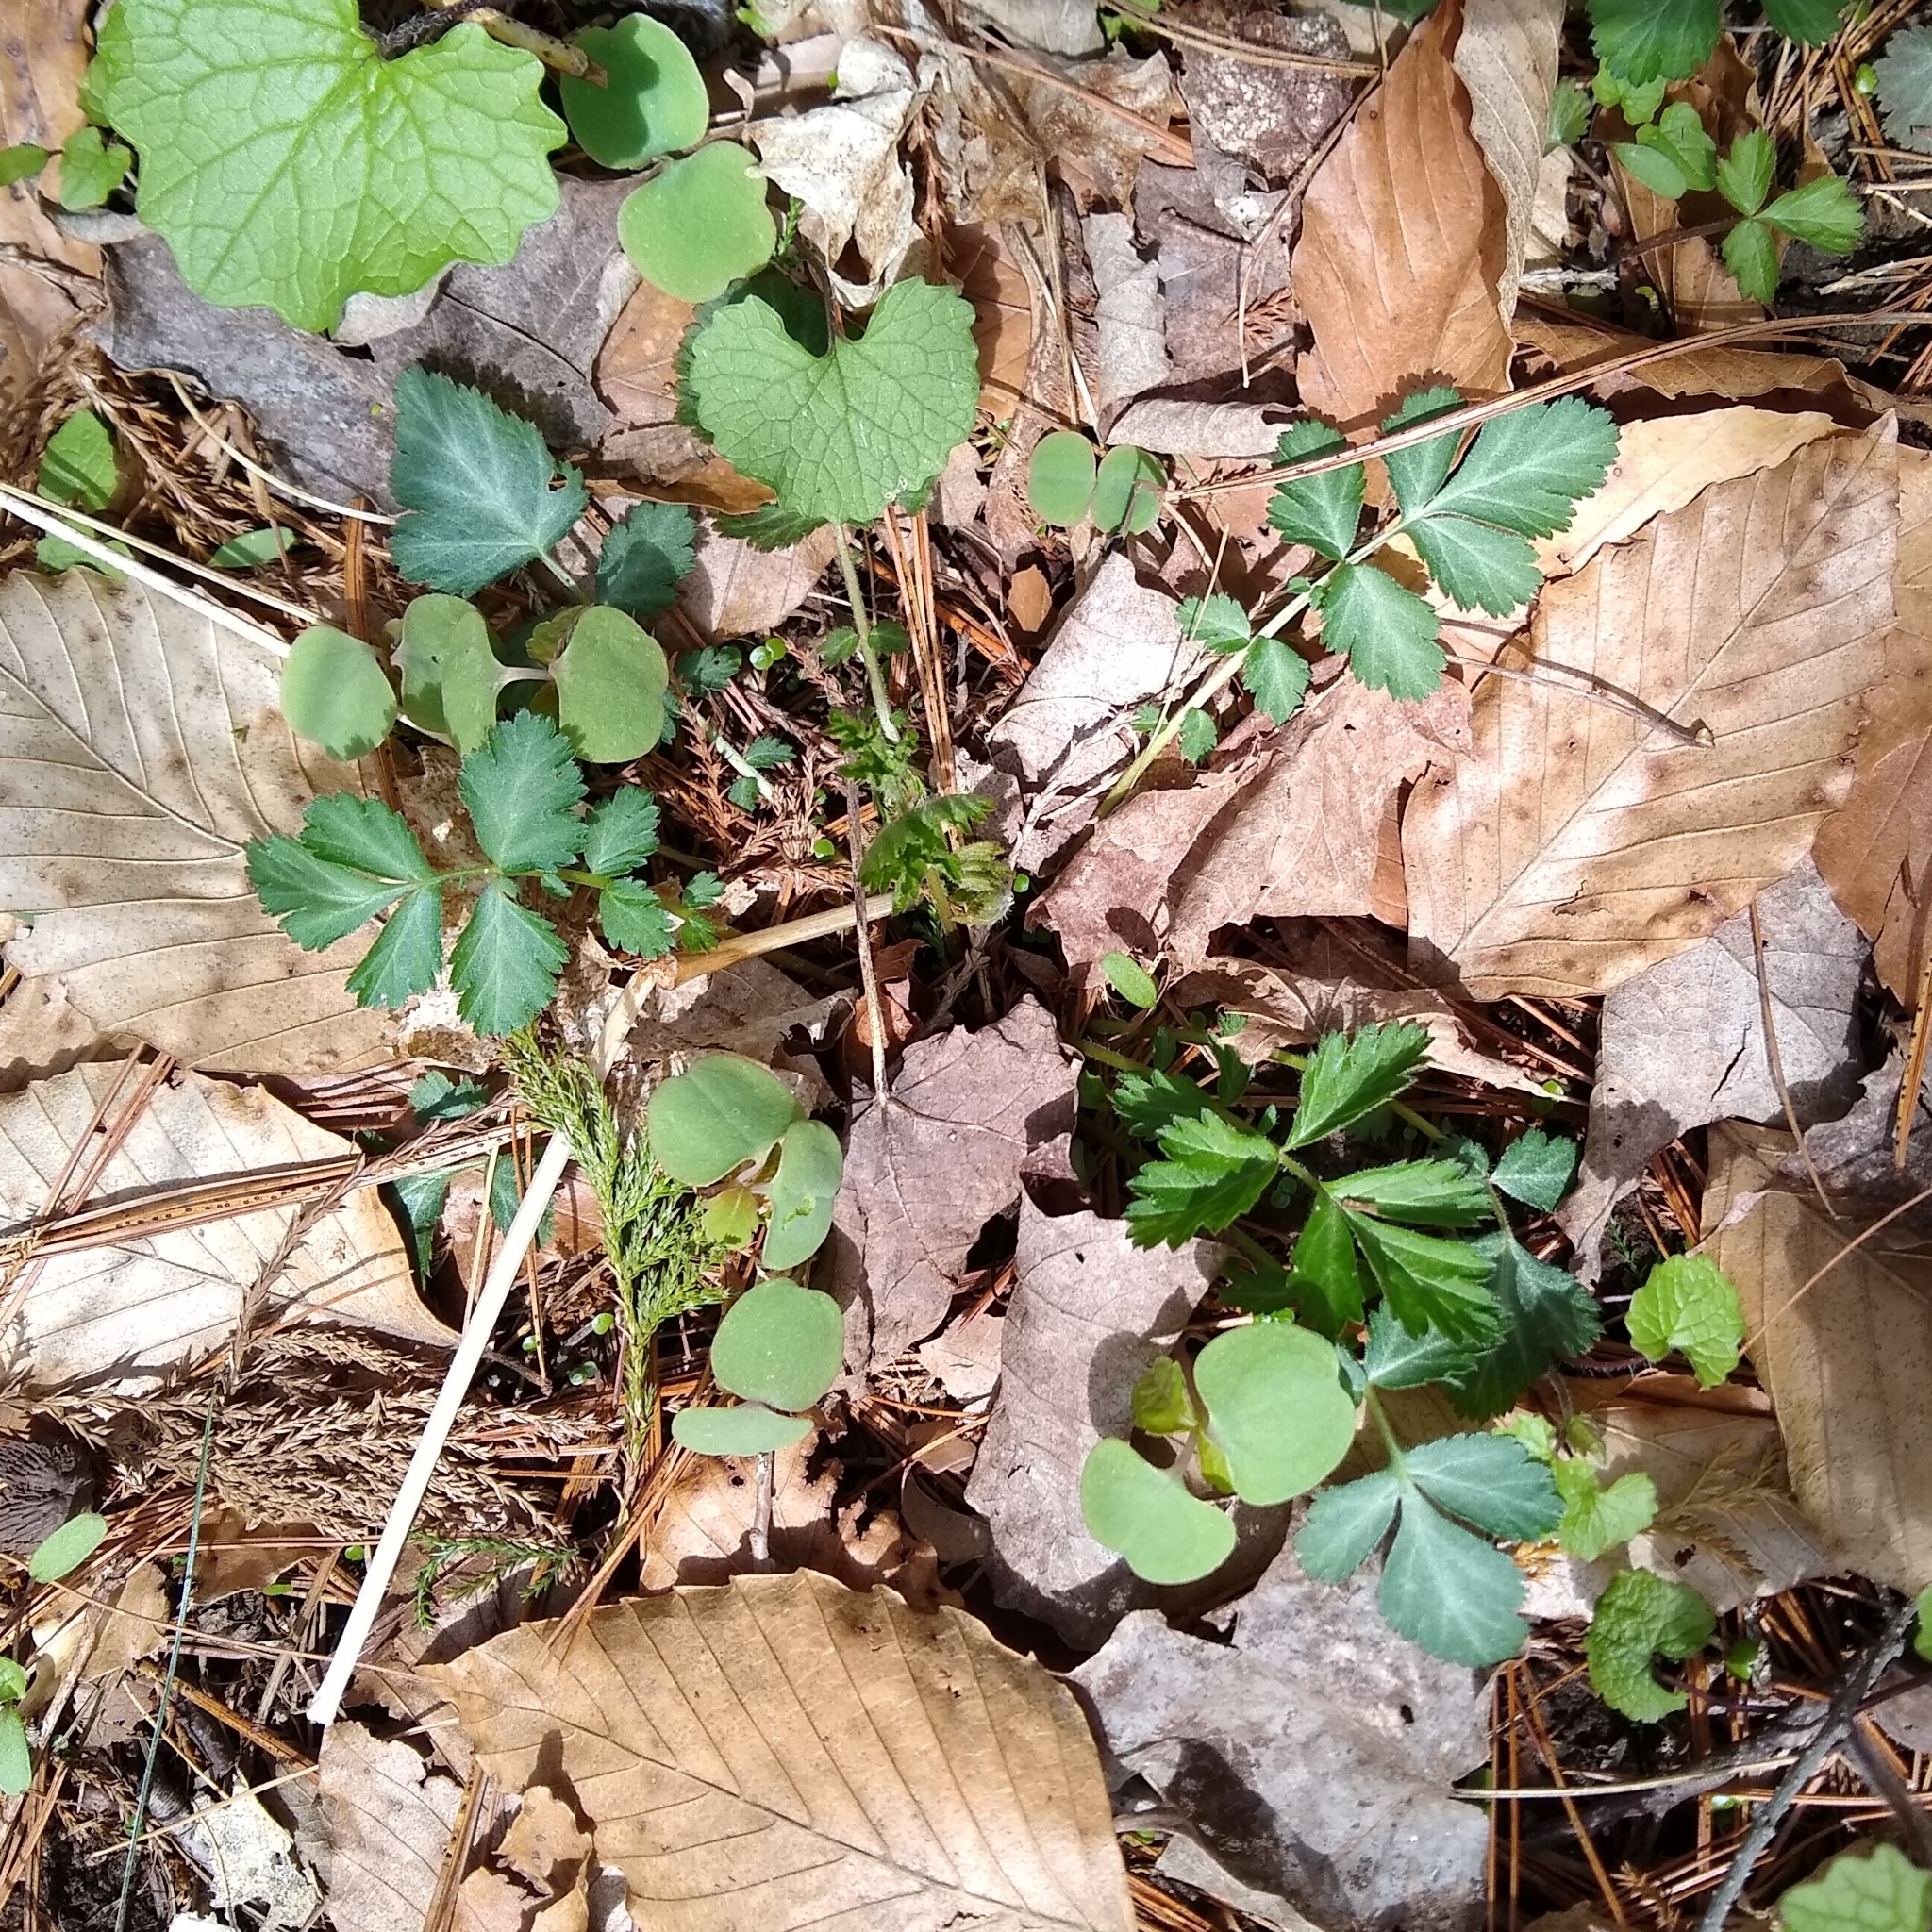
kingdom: Plantae
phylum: Tracheophyta
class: Magnoliopsida
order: Rosales
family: Rosaceae
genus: Geum
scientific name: Geum canadense
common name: White avens
